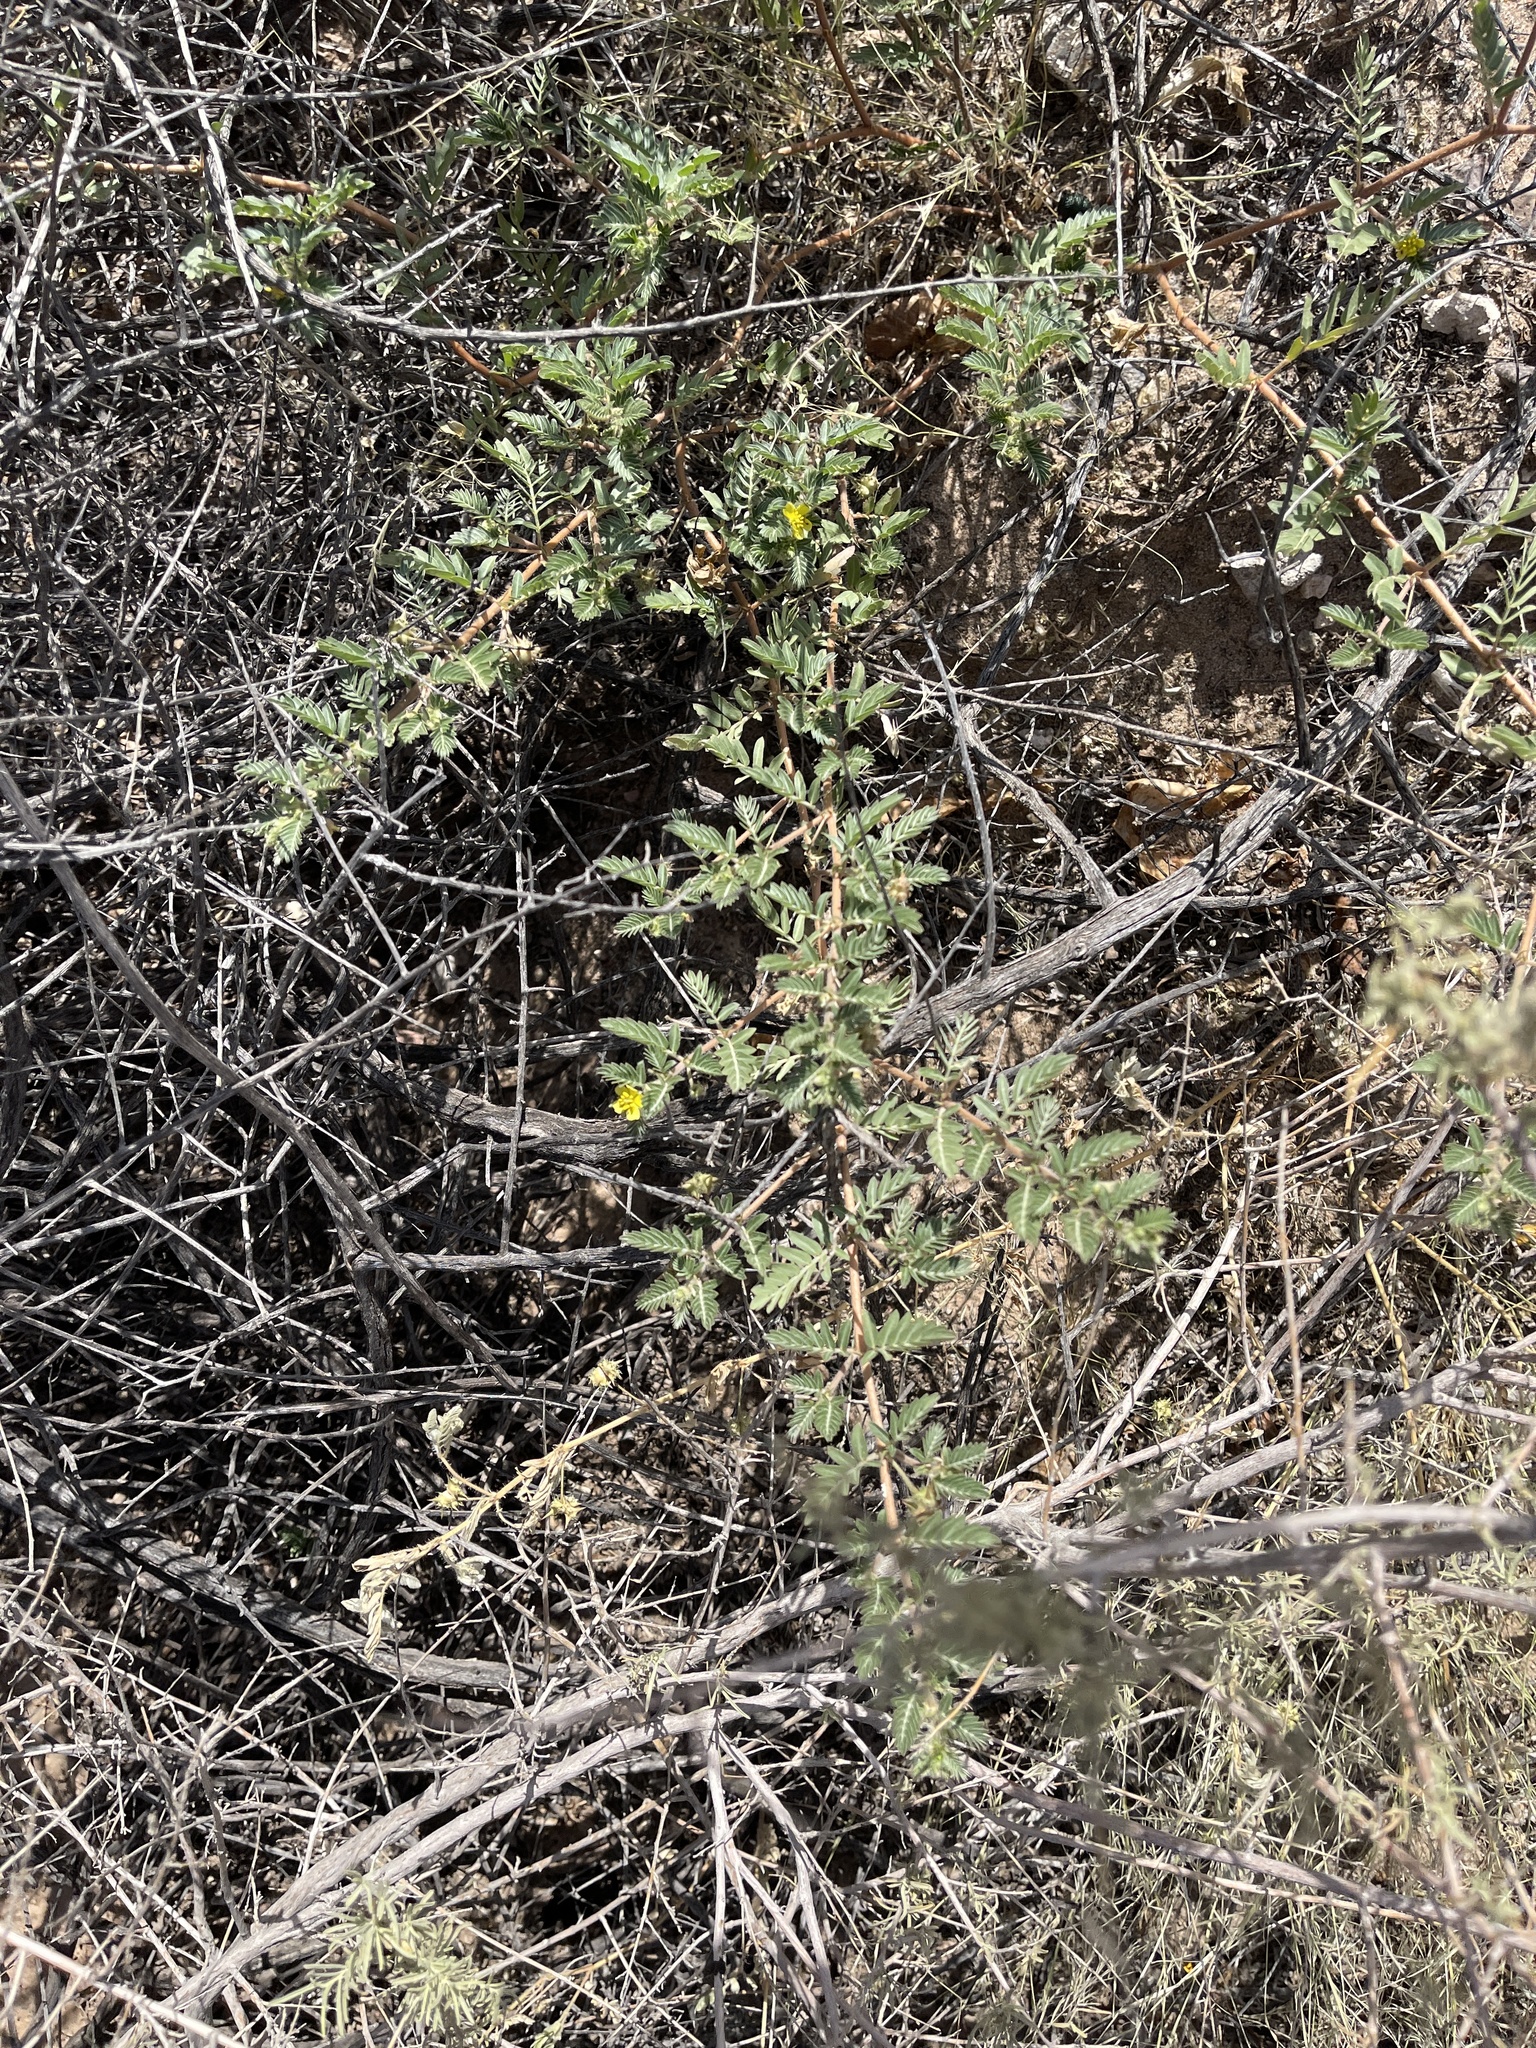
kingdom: Plantae
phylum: Tracheophyta
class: Magnoliopsida
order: Zygophyllales
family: Zygophyllaceae
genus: Tribulus
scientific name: Tribulus terrestris
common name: Puncturevine
